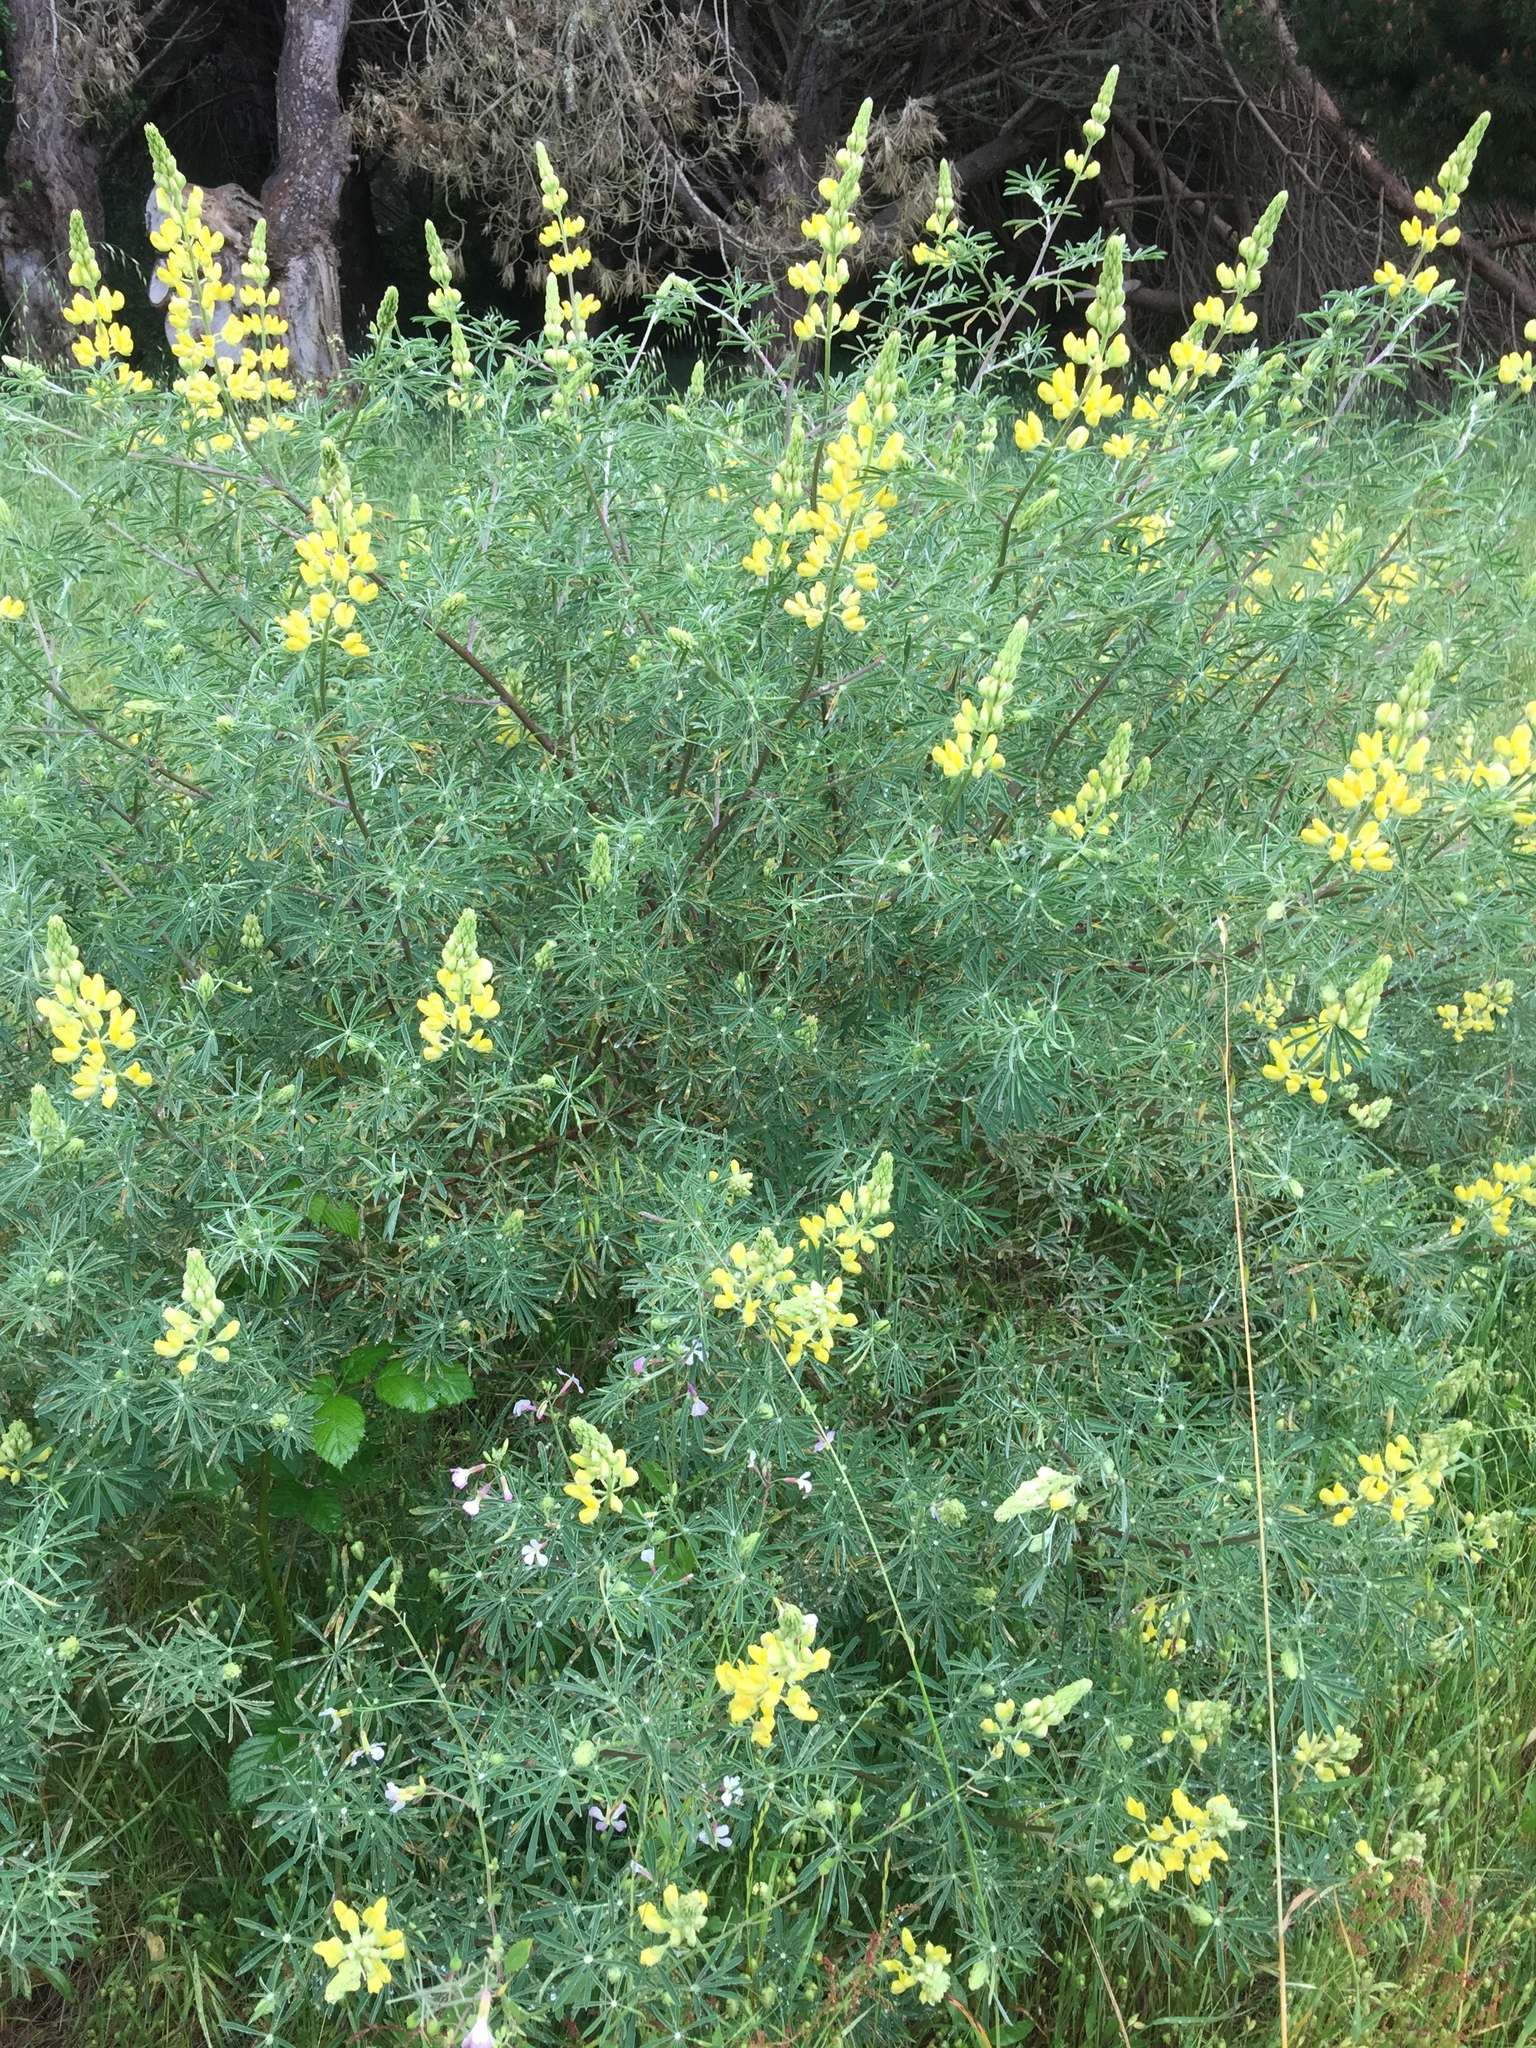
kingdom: Plantae
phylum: Tracheophyta
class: Magnoliopsida
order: Fabales
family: Fabaceae
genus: Lupinus
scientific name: Lupinus arboreus
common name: Yellow bush lupine
